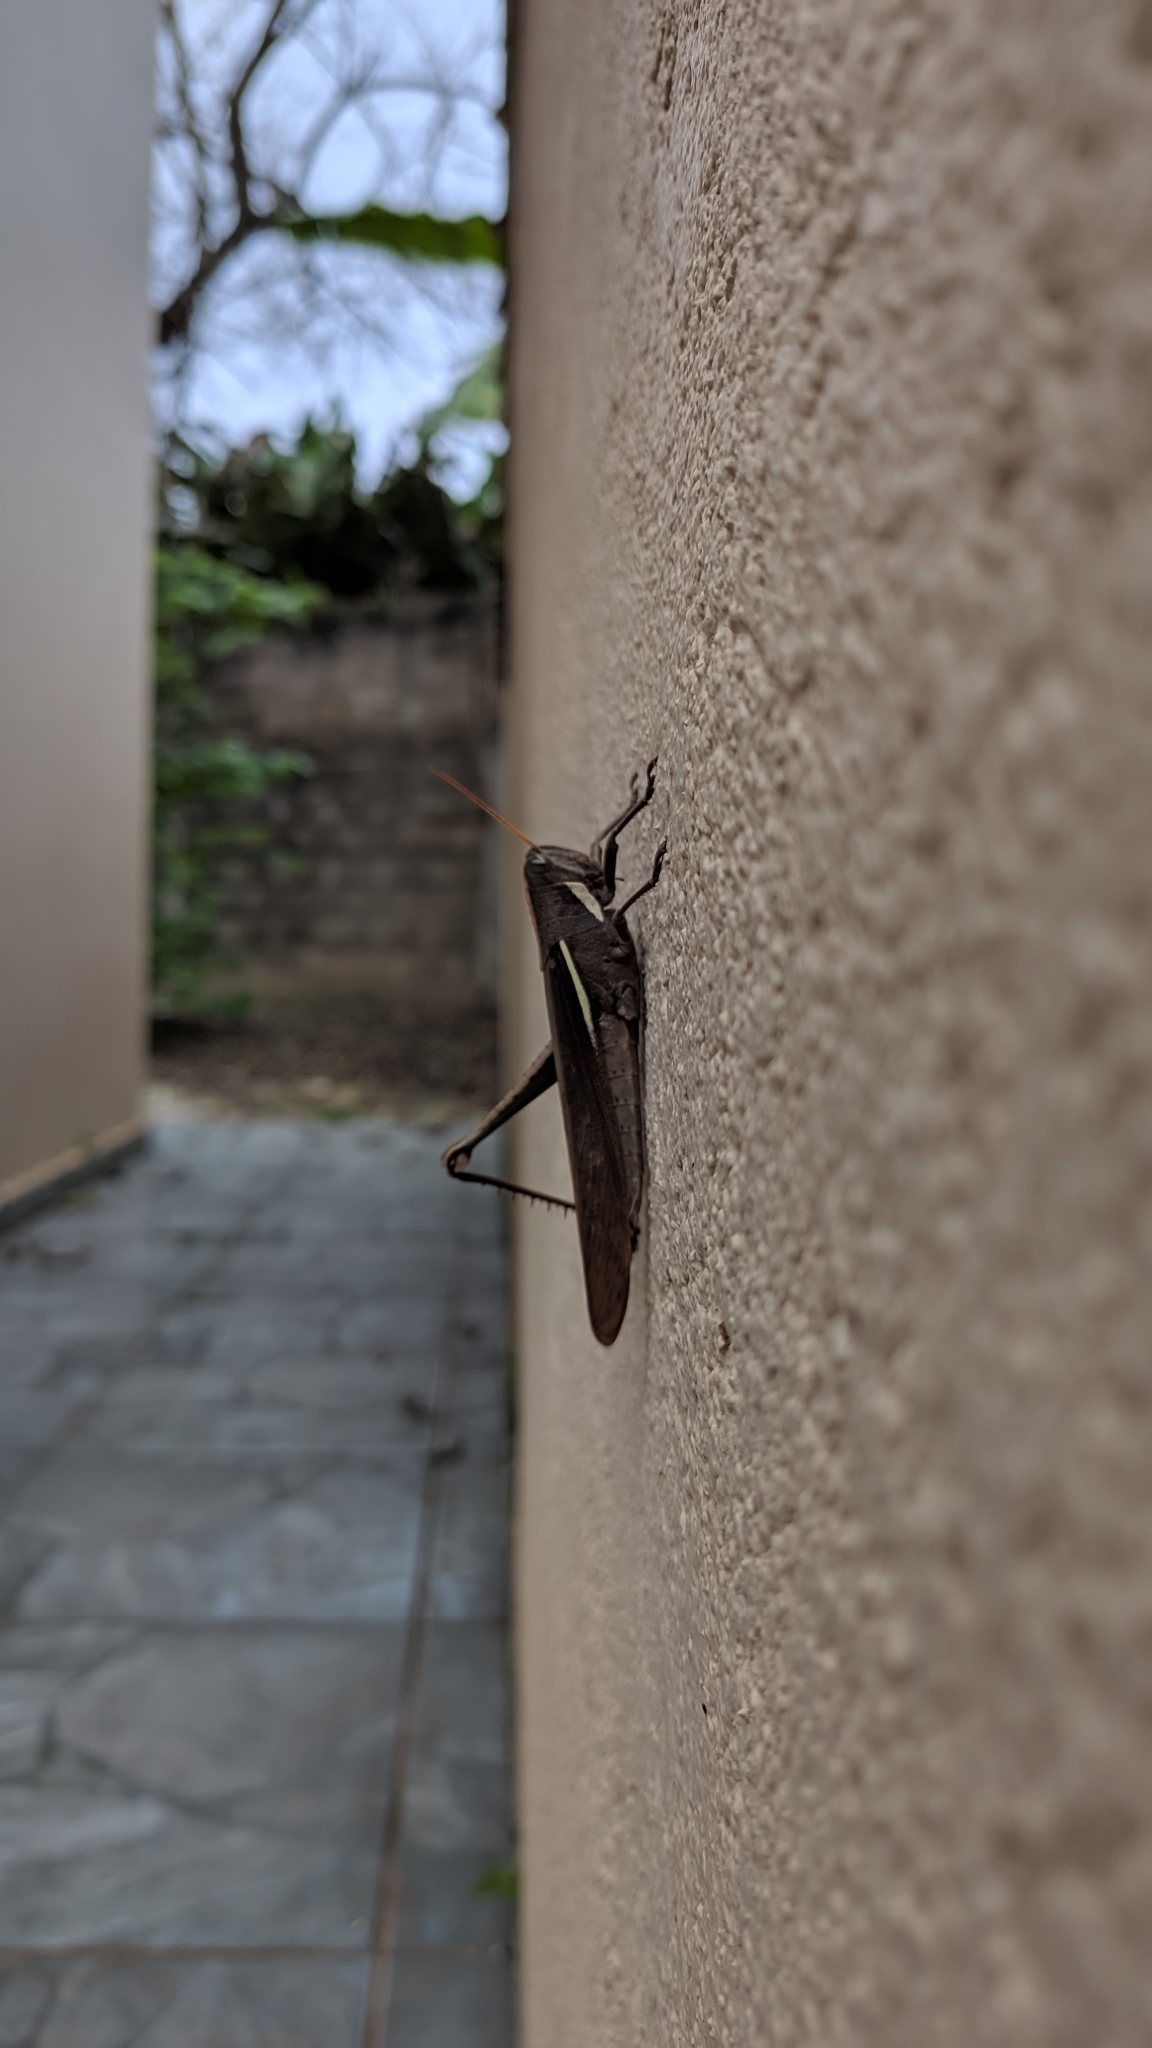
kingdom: Animalia
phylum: Arthropoda
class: Insecta
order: Orthoptera
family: Acrididae
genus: Schistocerca
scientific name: Schistocerca flavofasciata
